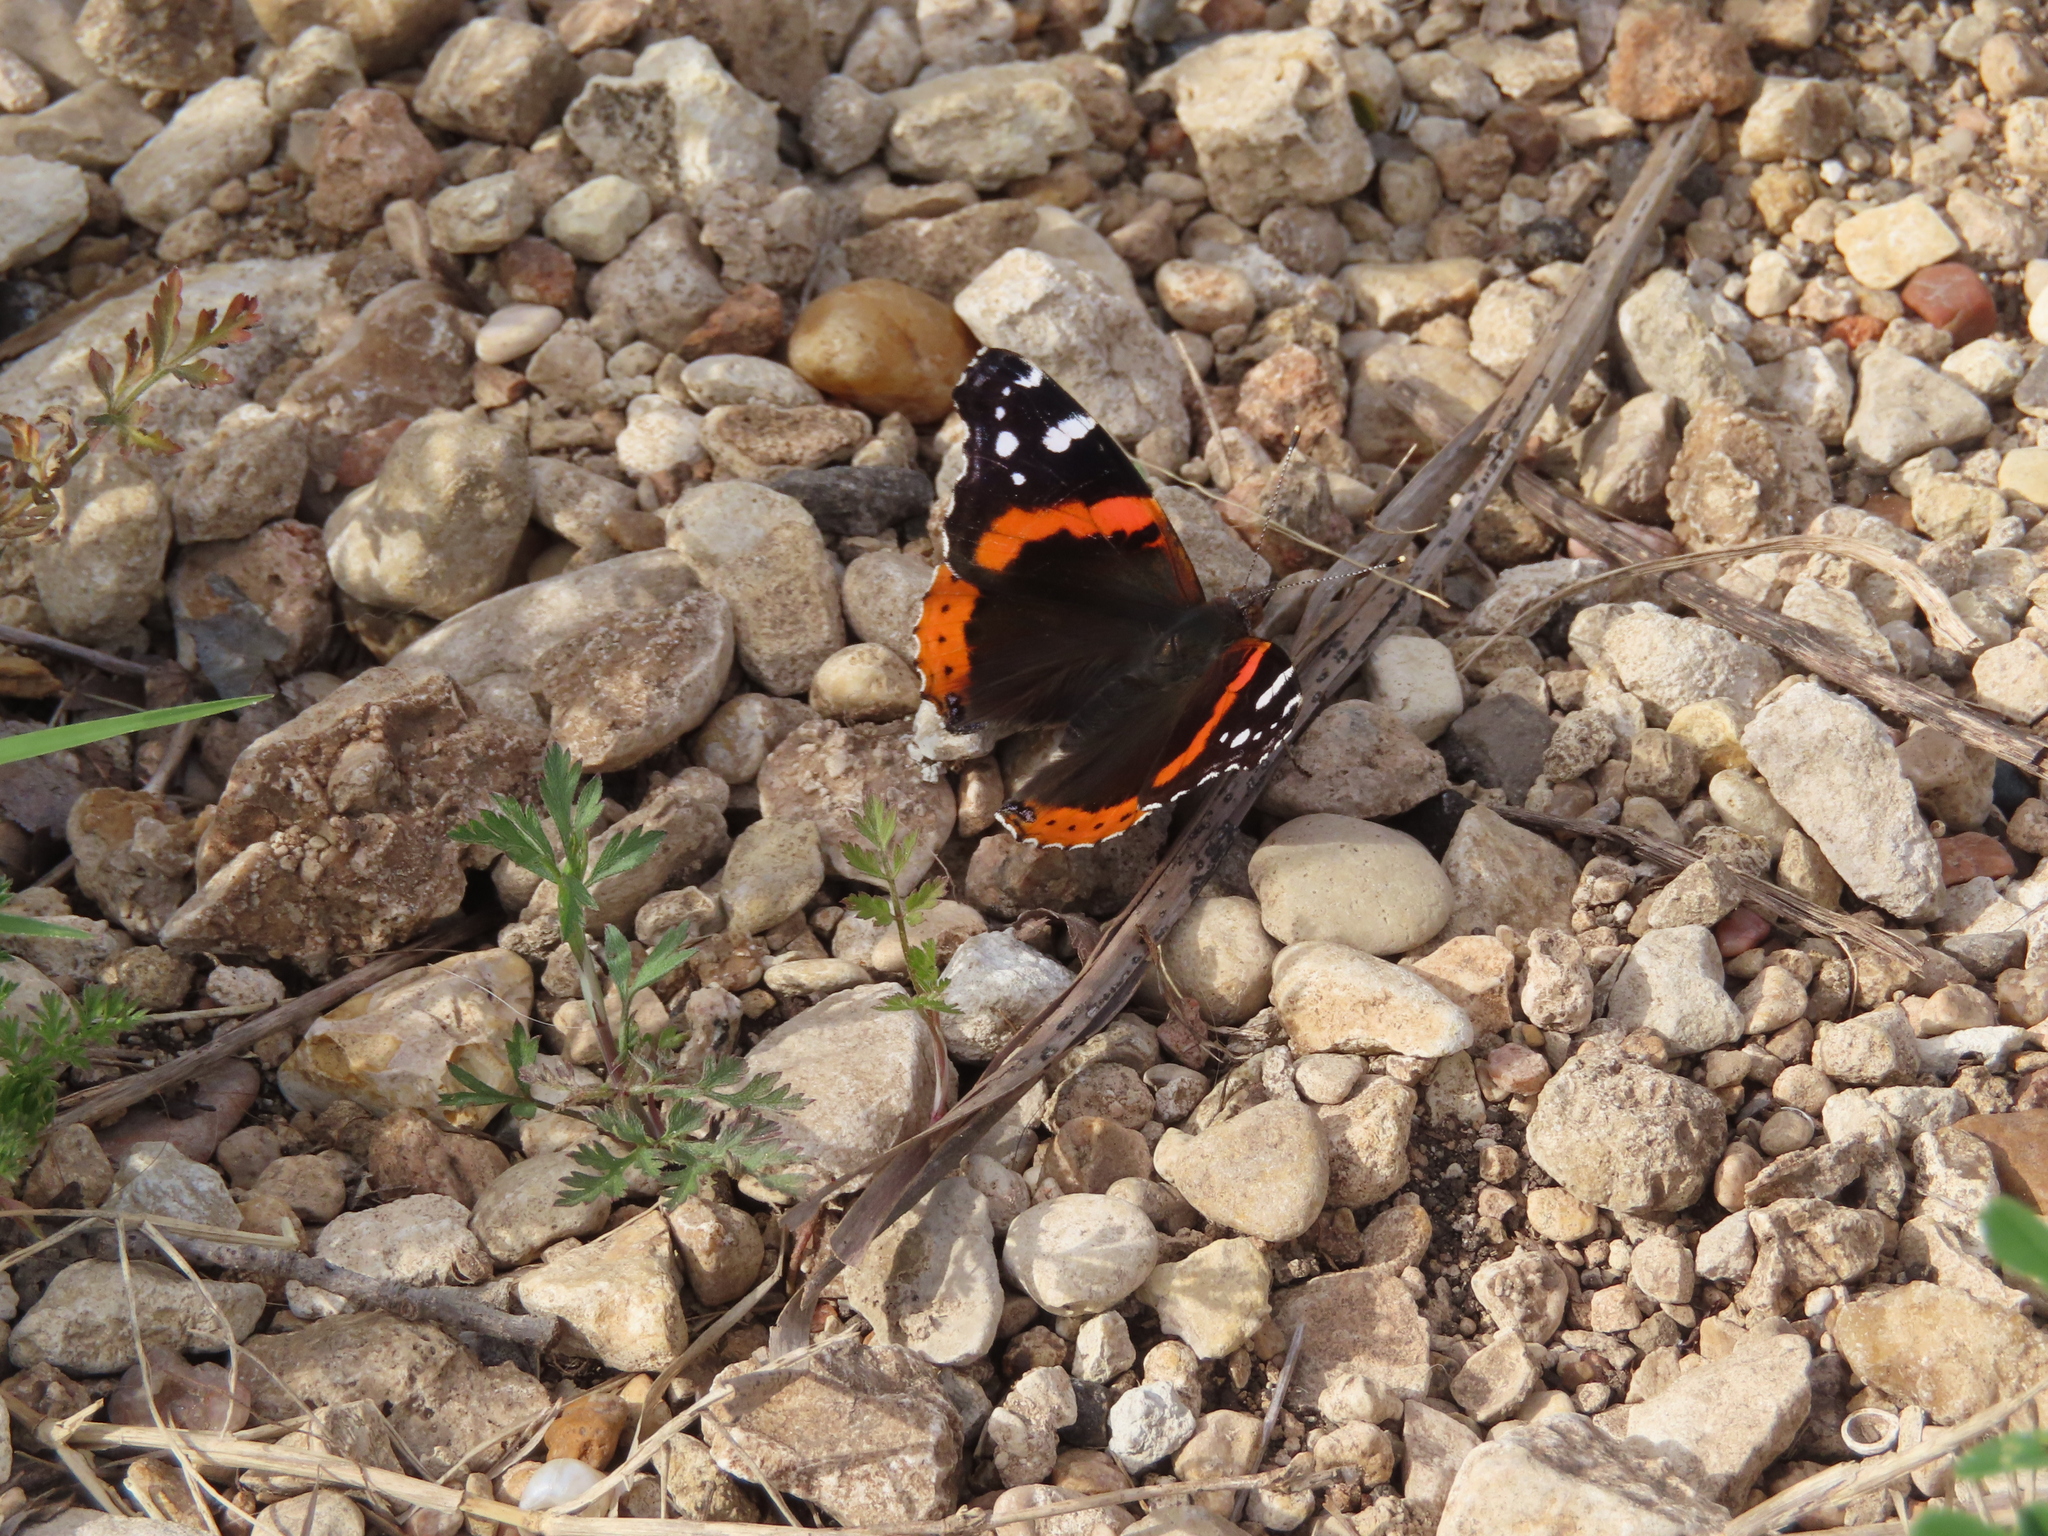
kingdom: Animalia
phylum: Arthropoda
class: Insecta
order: Lepidoptera
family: Nymphalidae
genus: Vanessa
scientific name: Vanessa atalanta
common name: Red admiral
